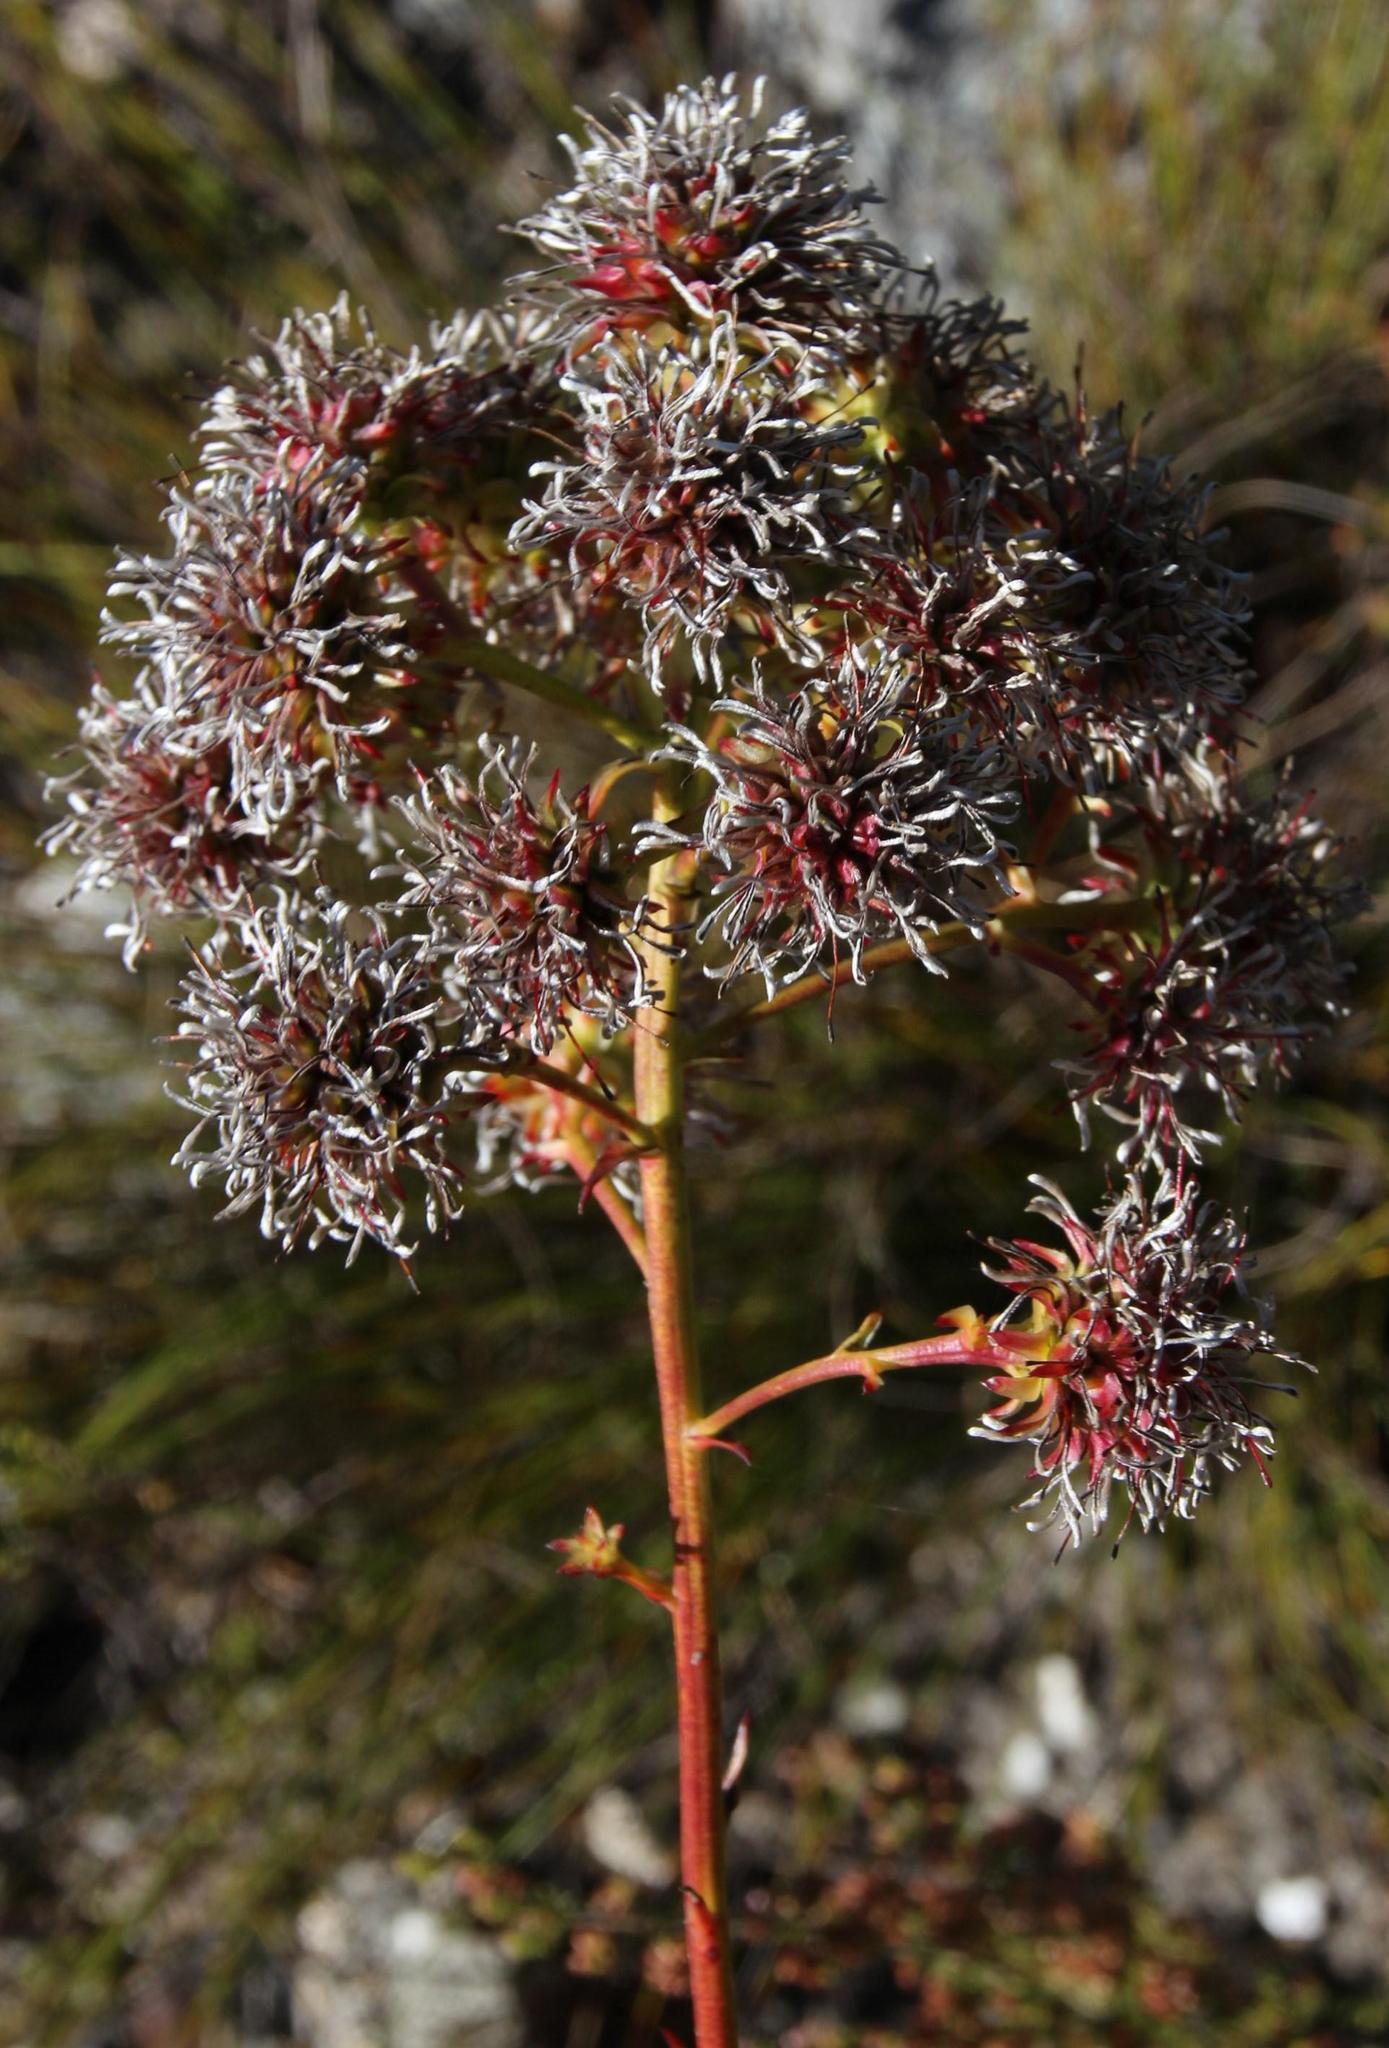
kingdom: Plantae
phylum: Tracheophyta
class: Magnoliopsida
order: Proteales
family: Proteaceae
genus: Serruria
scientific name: Serruria elongata
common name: Long-stalk spiderhead
